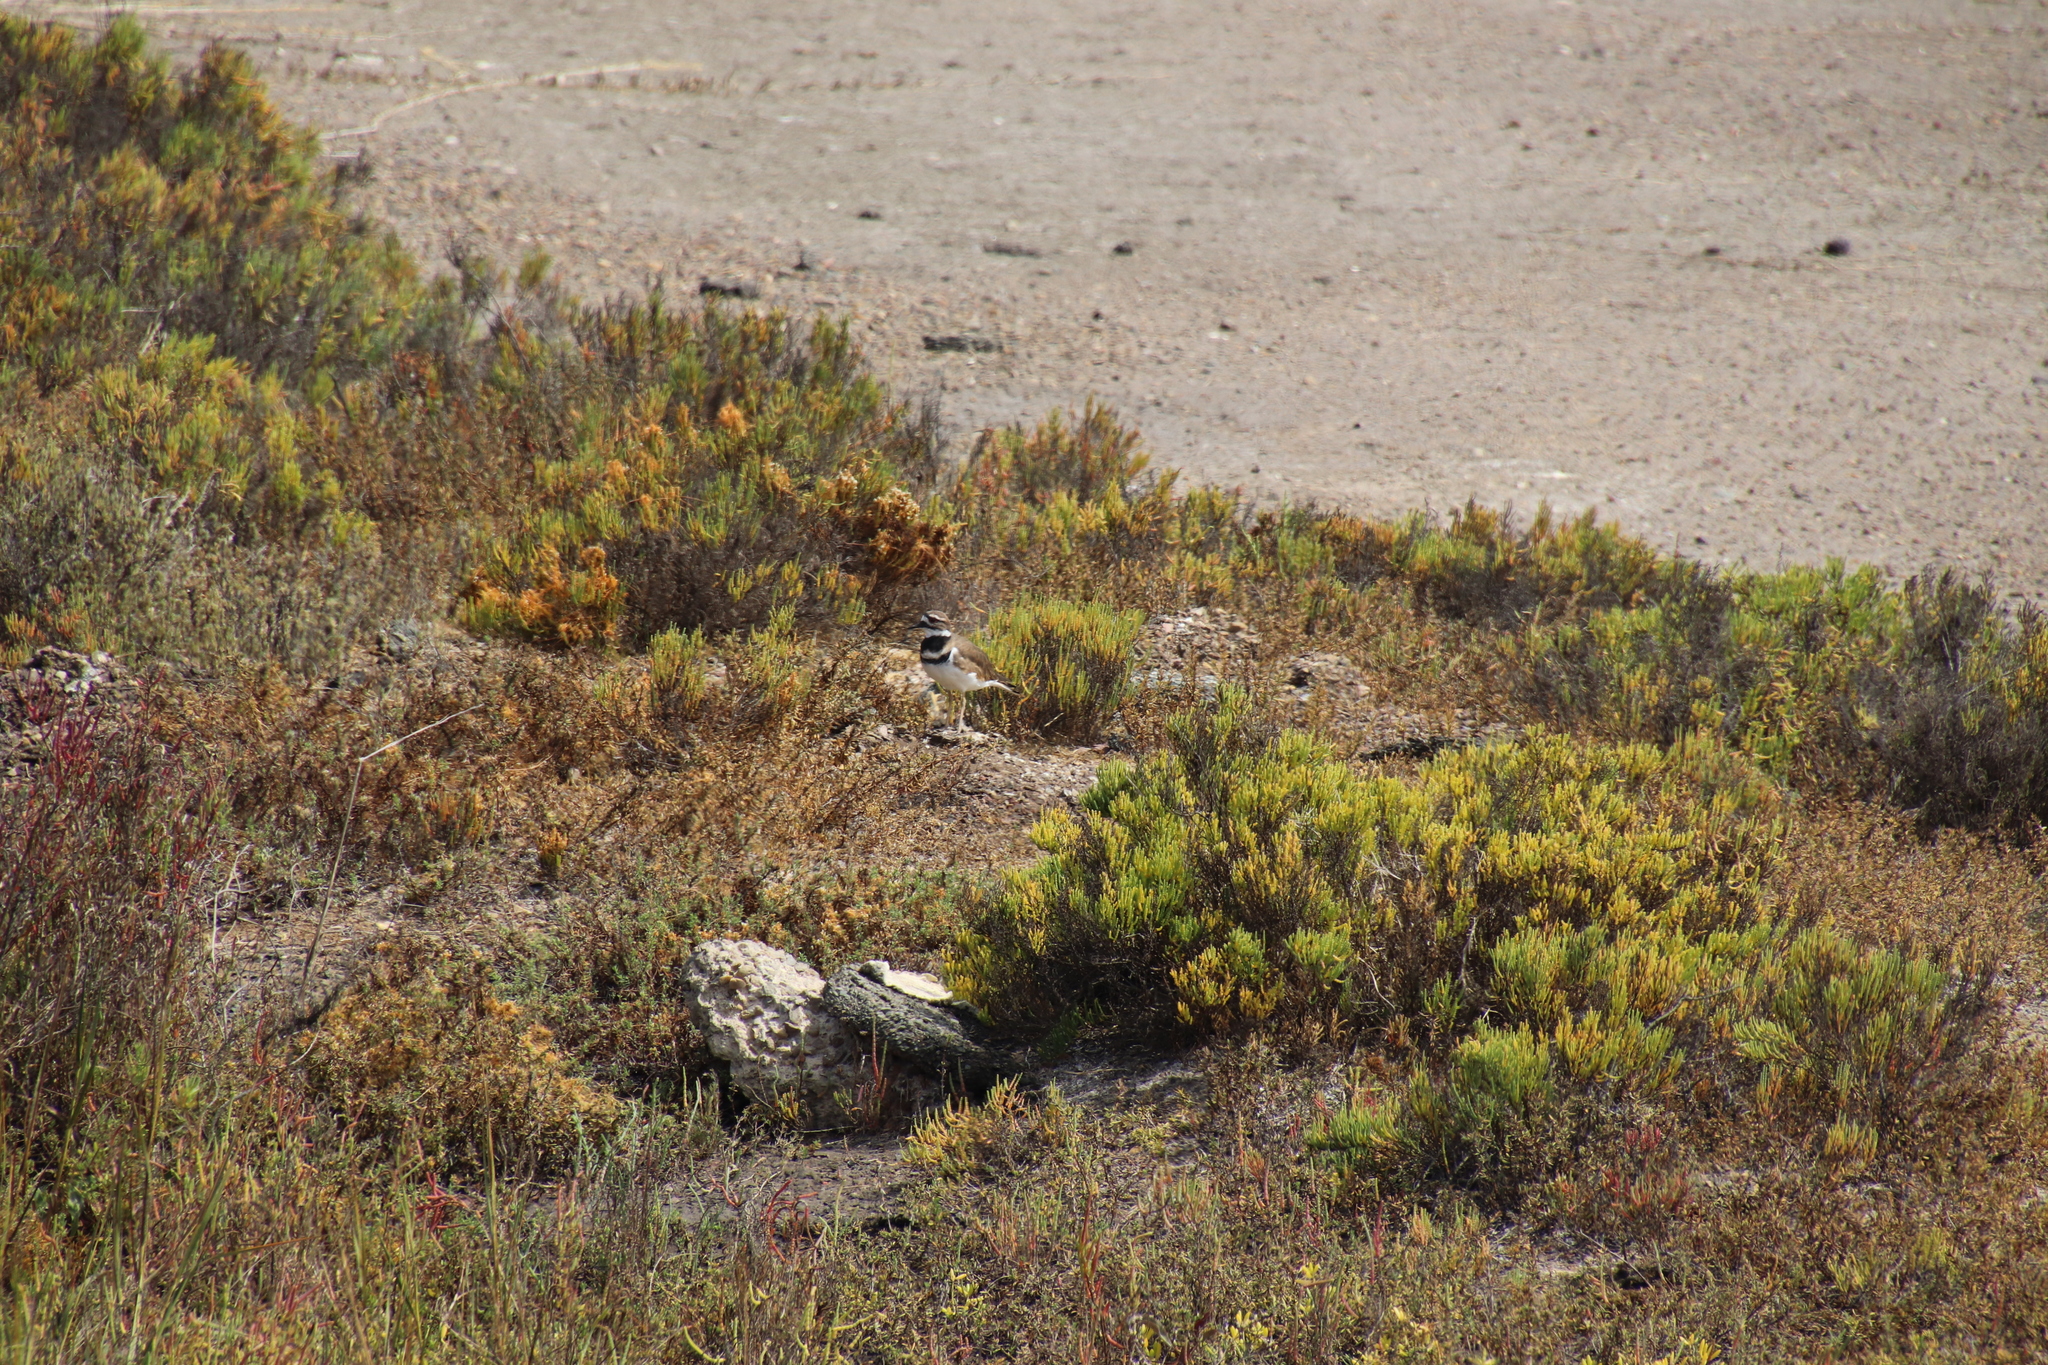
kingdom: Animalia
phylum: Chordata
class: Aves
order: Charadriiformes
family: Charadriidae
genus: Charadrius
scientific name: Charadrius vociferus
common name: Killdeer
